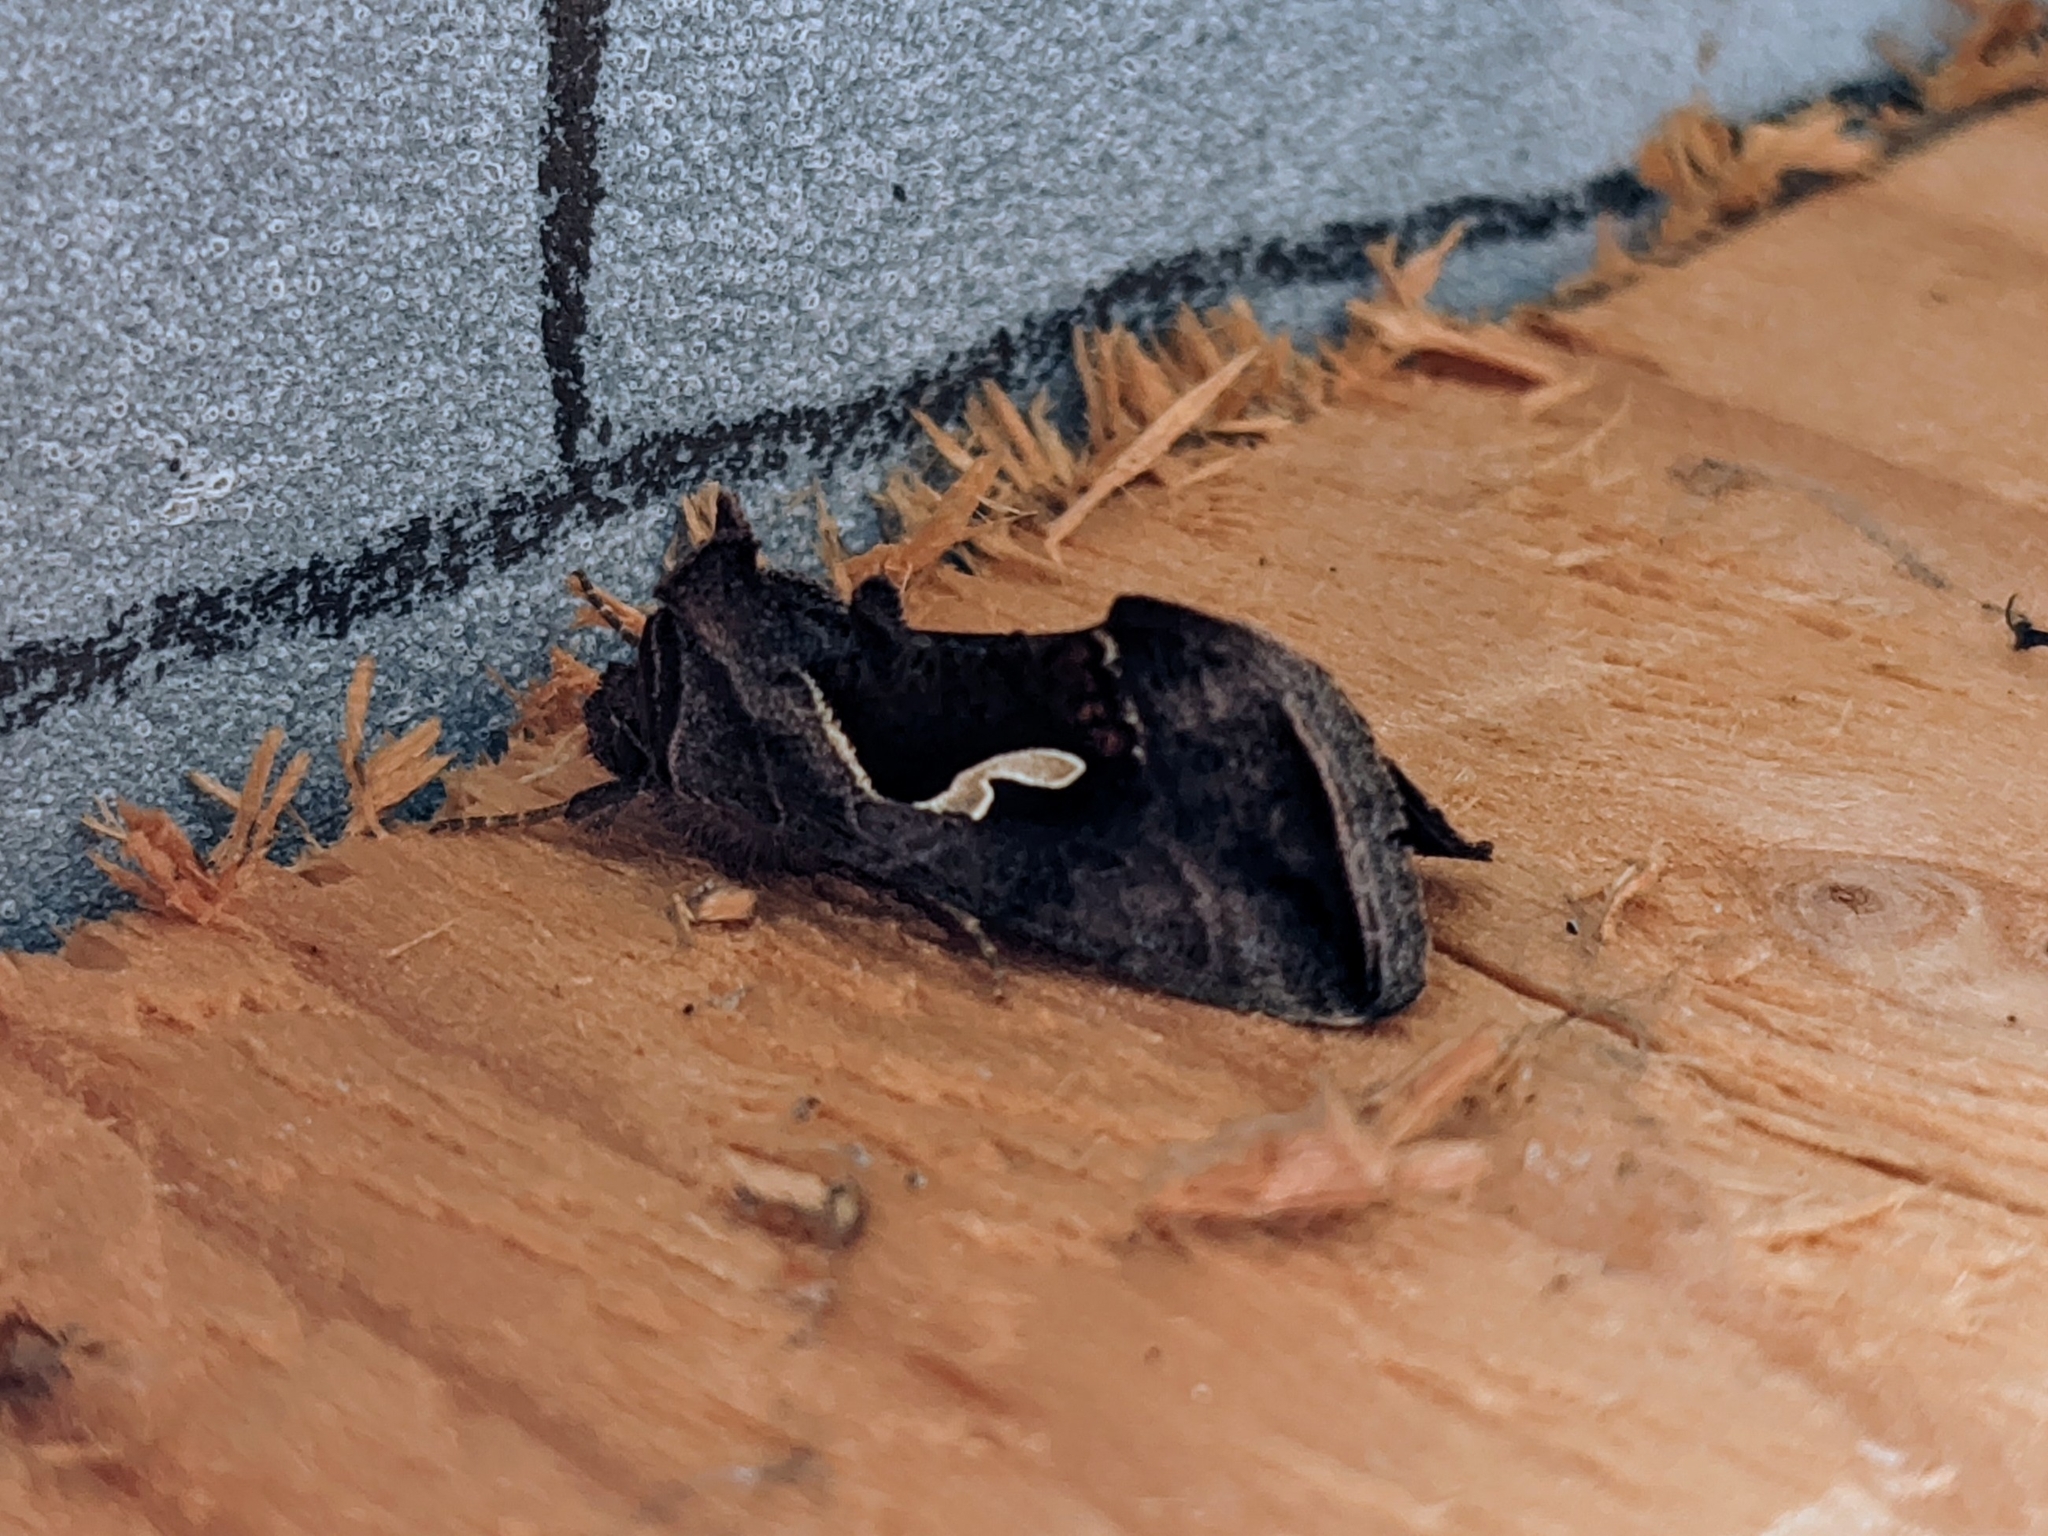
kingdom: Animalia
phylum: Arthropoda
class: Insecta
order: Lepidoptera
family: Noctuidae
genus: Macdunnoughia
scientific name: Macdunnoughia confusa
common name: Dewick's plusia
